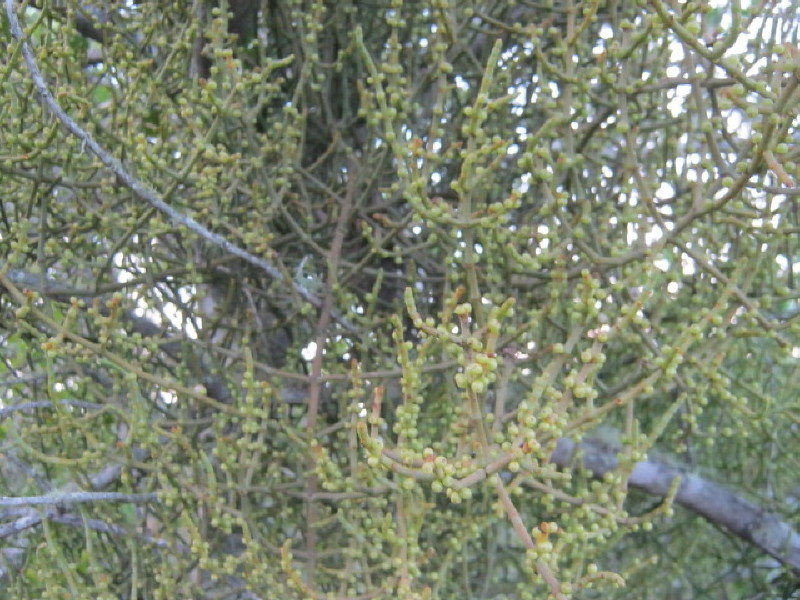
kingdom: Plantae
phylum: Tracheophyta
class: Magnoliopsida
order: Santalales
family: Viscaceae
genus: Viscum
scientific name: Viscum capense
